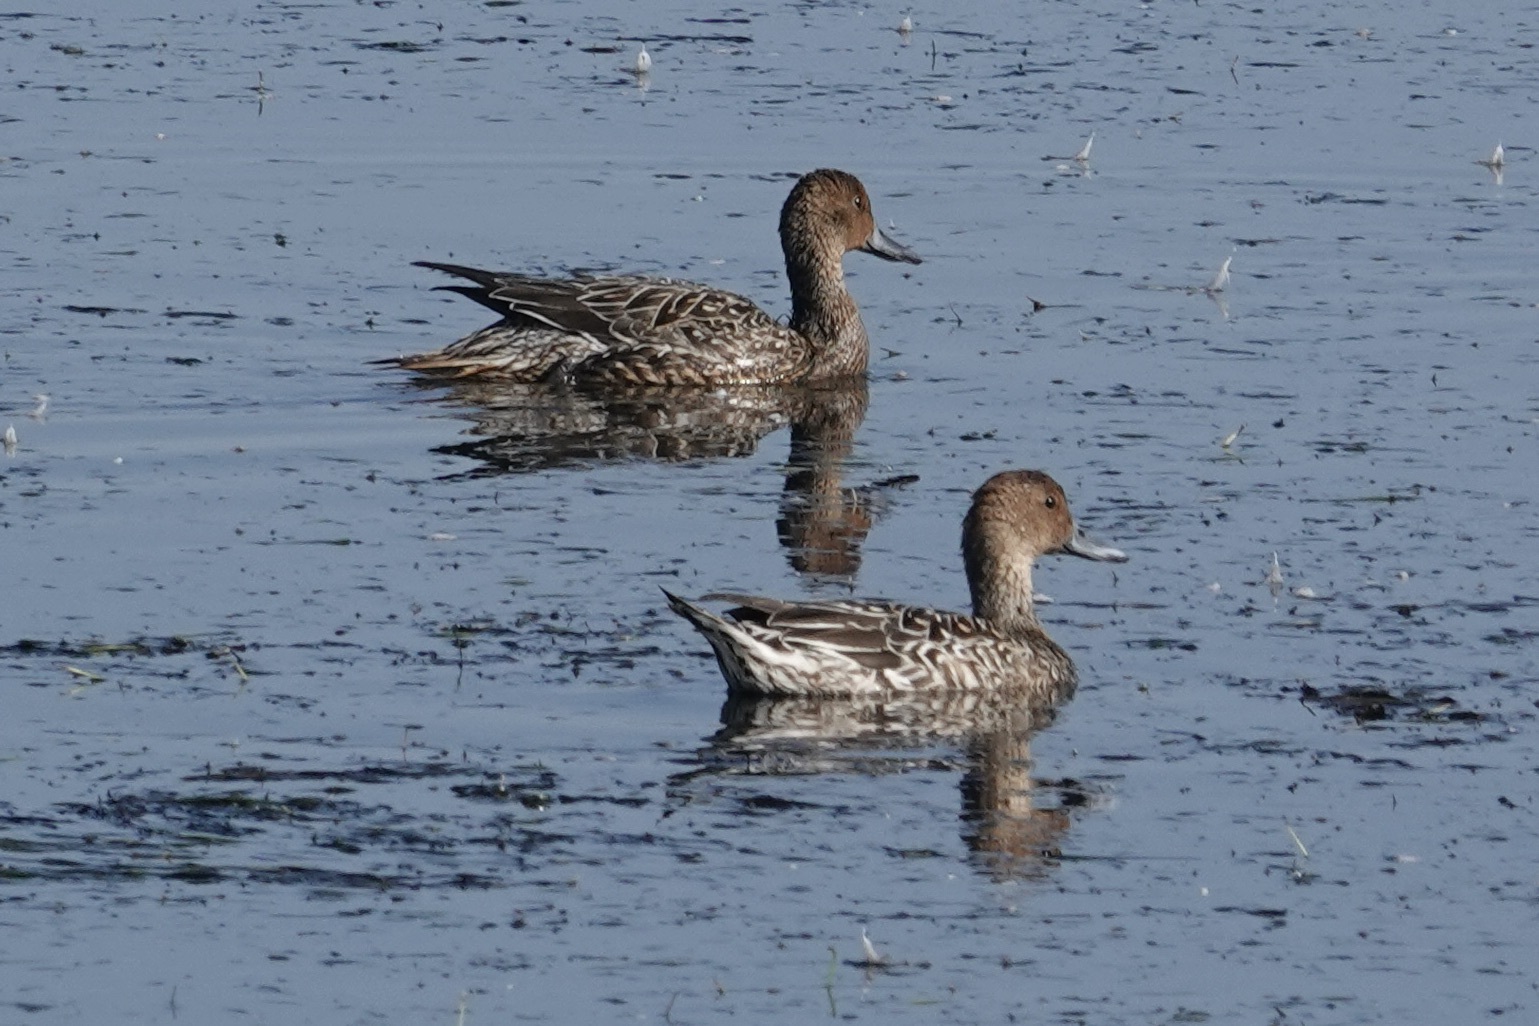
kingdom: Animalia
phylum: Chordata
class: Aves
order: Anseriformes
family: Anatidae
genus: Anas
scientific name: Anas acuta
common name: Northern pintail
